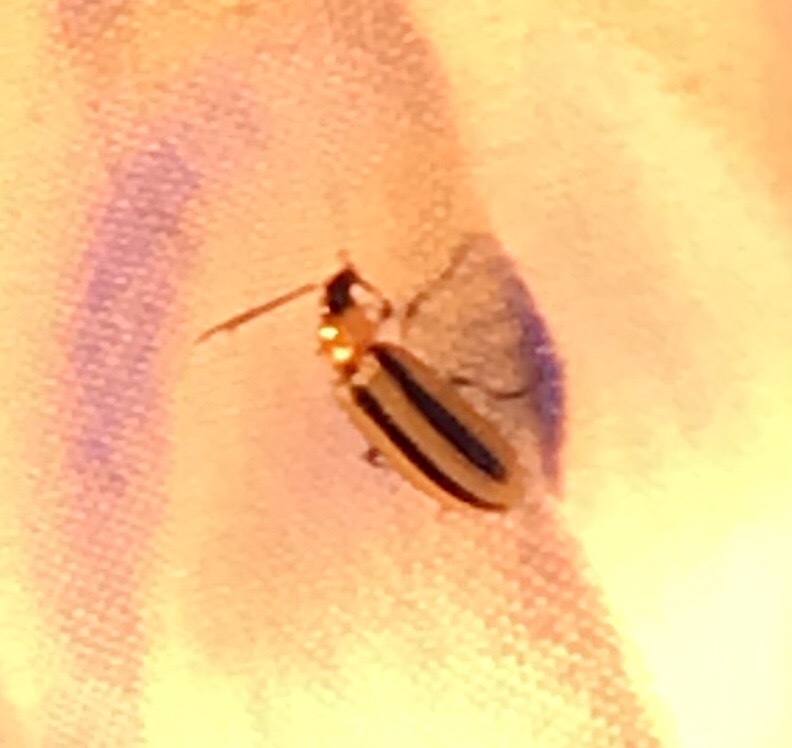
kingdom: Animalia
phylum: Arthropoda
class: Insecta
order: Coleoptera
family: Chrysomelidae
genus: Acalymma
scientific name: Acalymma vittatum
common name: Striped cucumber beetle
